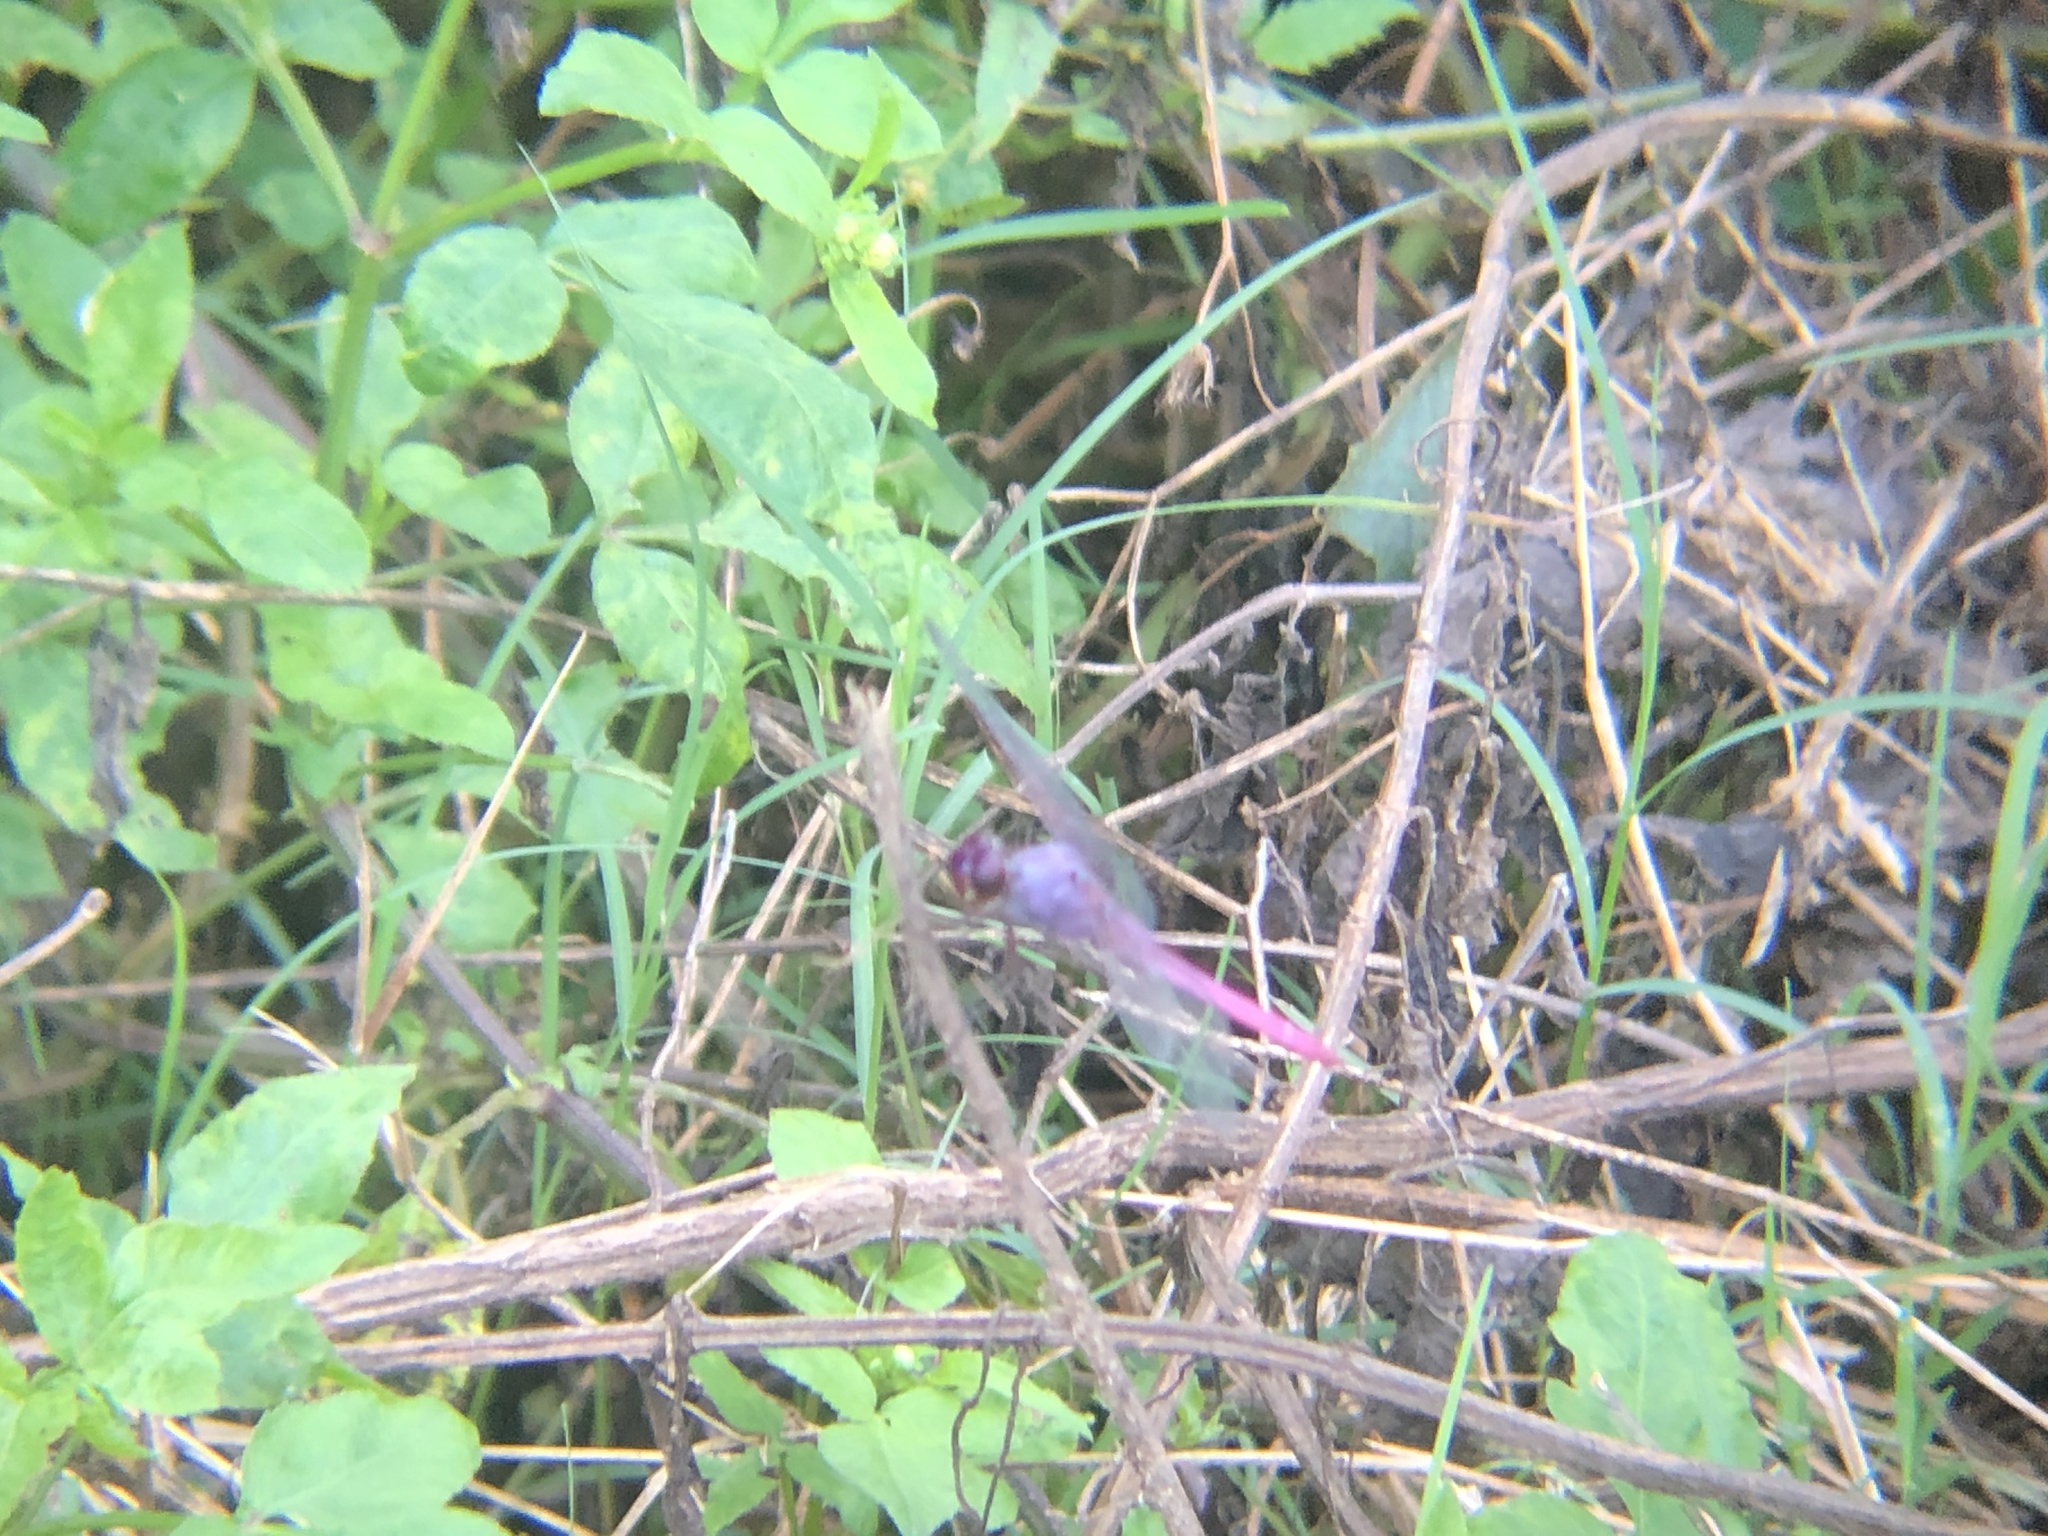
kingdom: Animalia
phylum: Arthropoda
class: Insecta
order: Odonata
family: Libellulidae
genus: Orthemis
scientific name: Orthemis ferruginea
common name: Roseate skimmer
